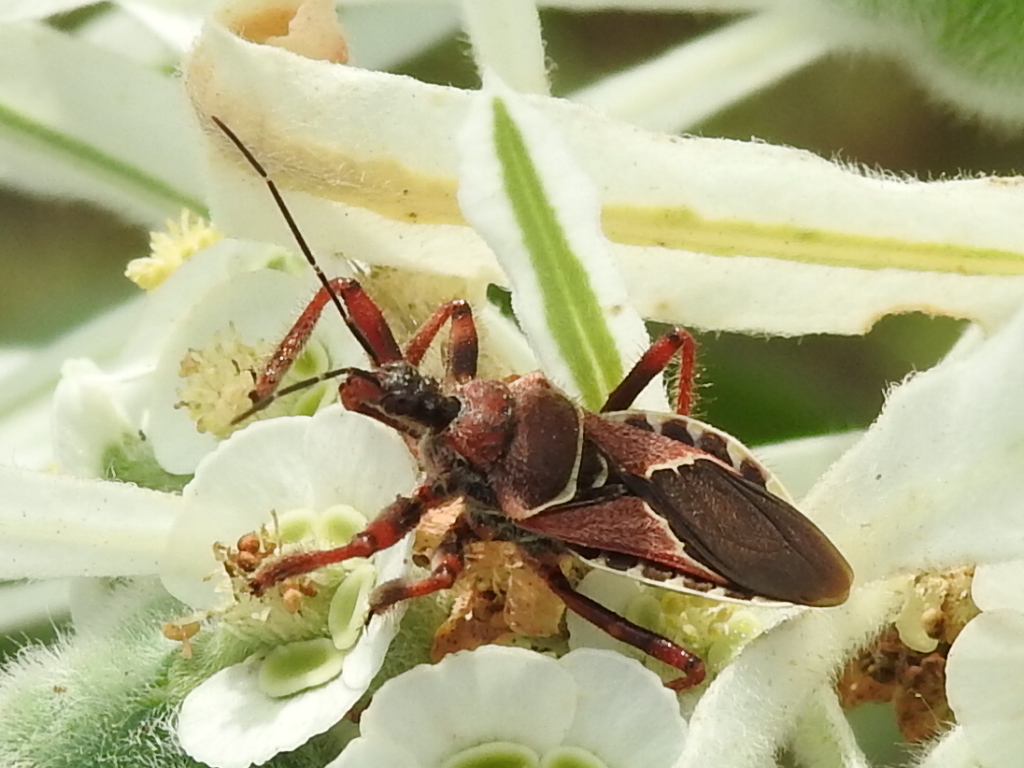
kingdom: Animalia
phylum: Arthropoda
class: Insecta
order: Hemiptera
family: Reduviidae
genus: Apiomerus
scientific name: Apiomerus spissipes
